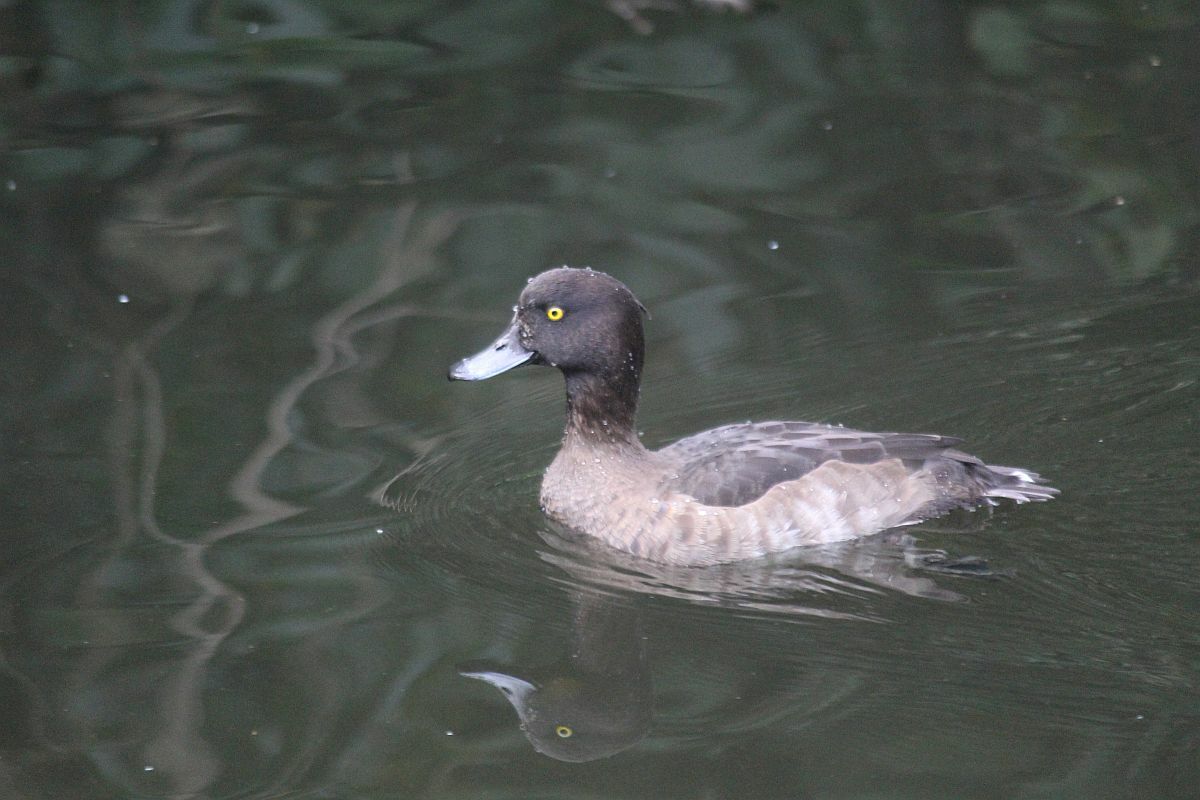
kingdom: Animalia
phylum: Chordata
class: Aves
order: Anseriformes
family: Anatidae
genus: Aythya
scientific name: Aythya fuligula
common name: Tufted duck
